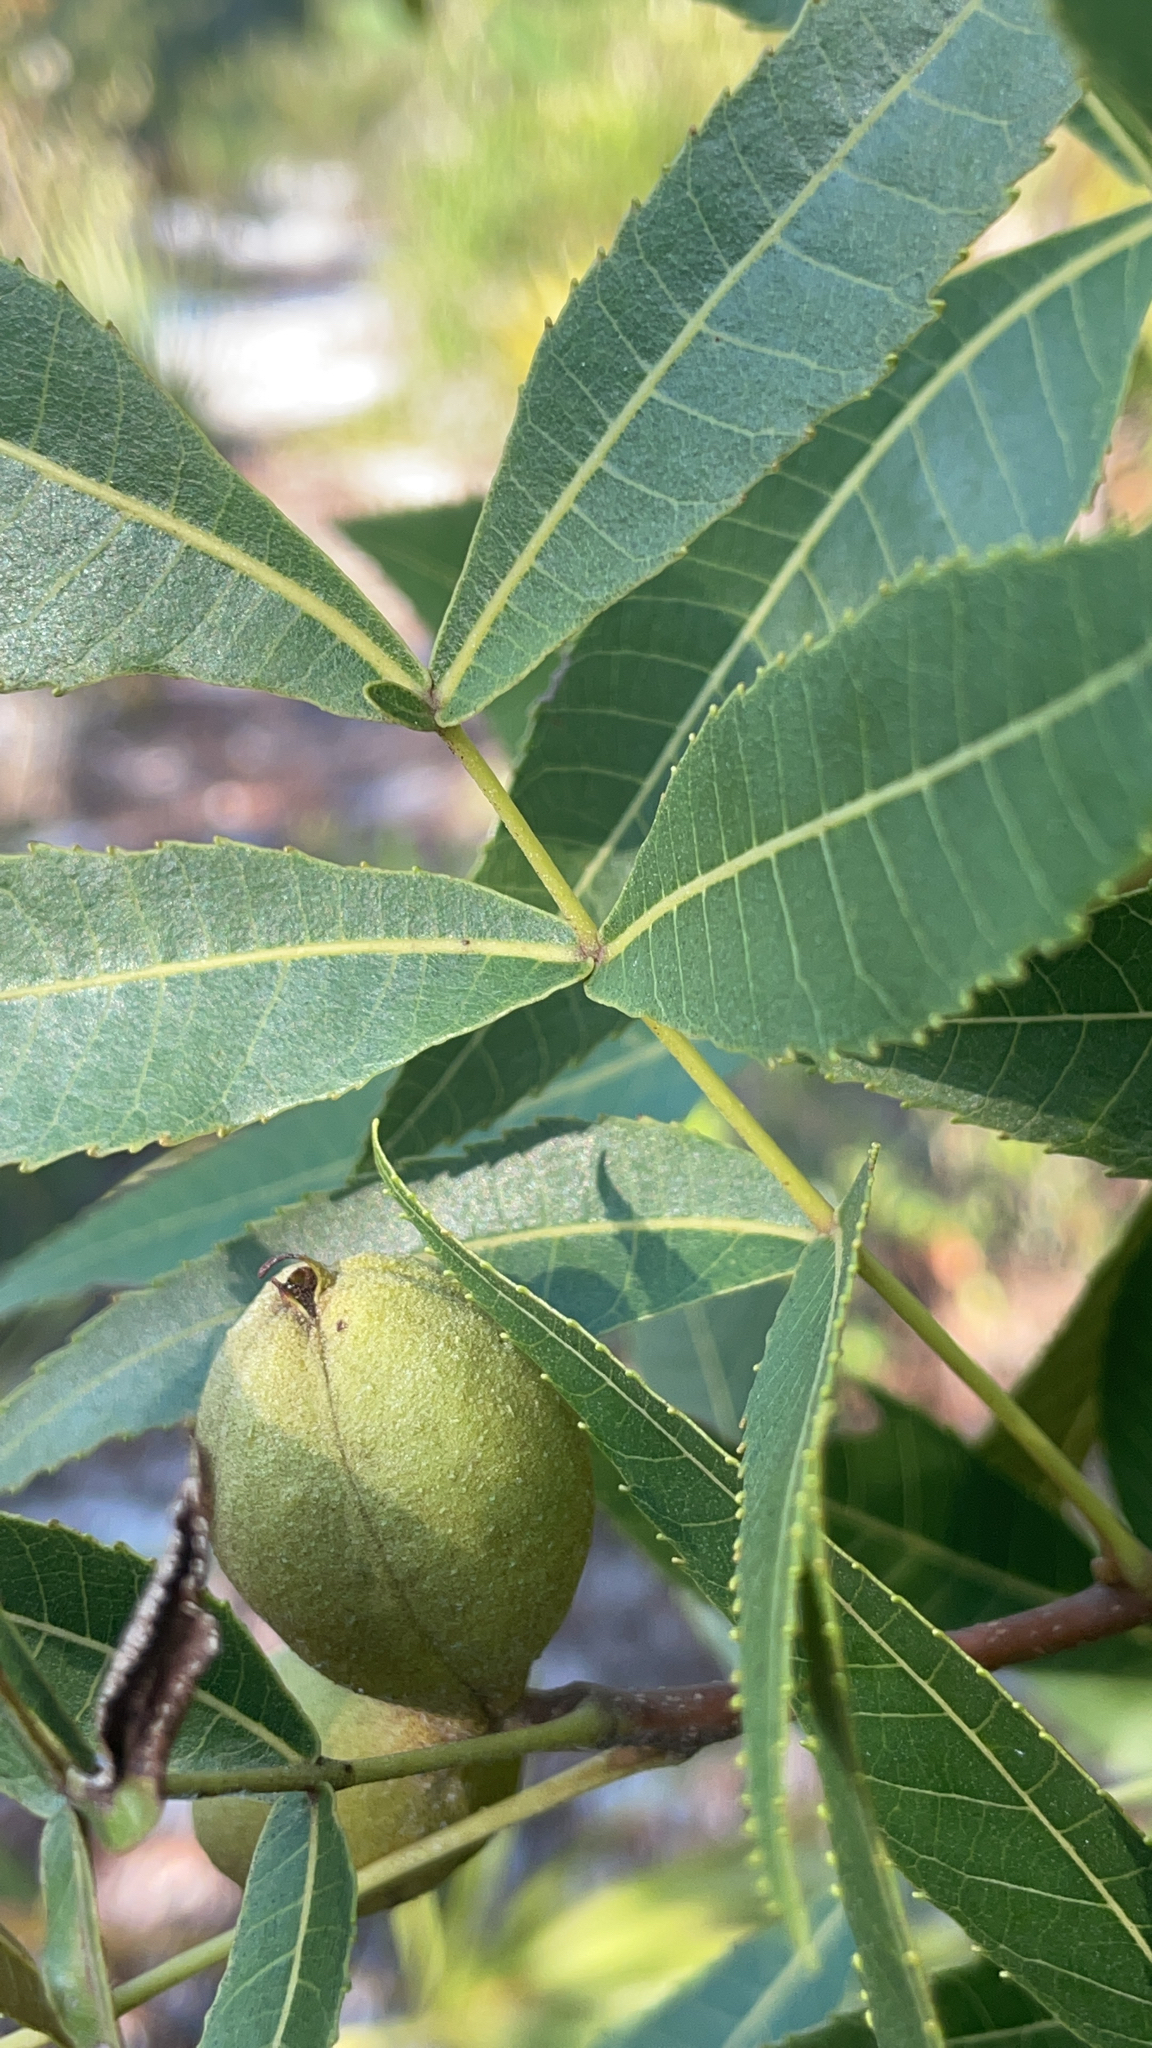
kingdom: Plantae
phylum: Tracheophyta
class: Magnoliopsida
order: Fagales
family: Juglandaceae
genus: Carya
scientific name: Carya floridana
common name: Scrub hickory
